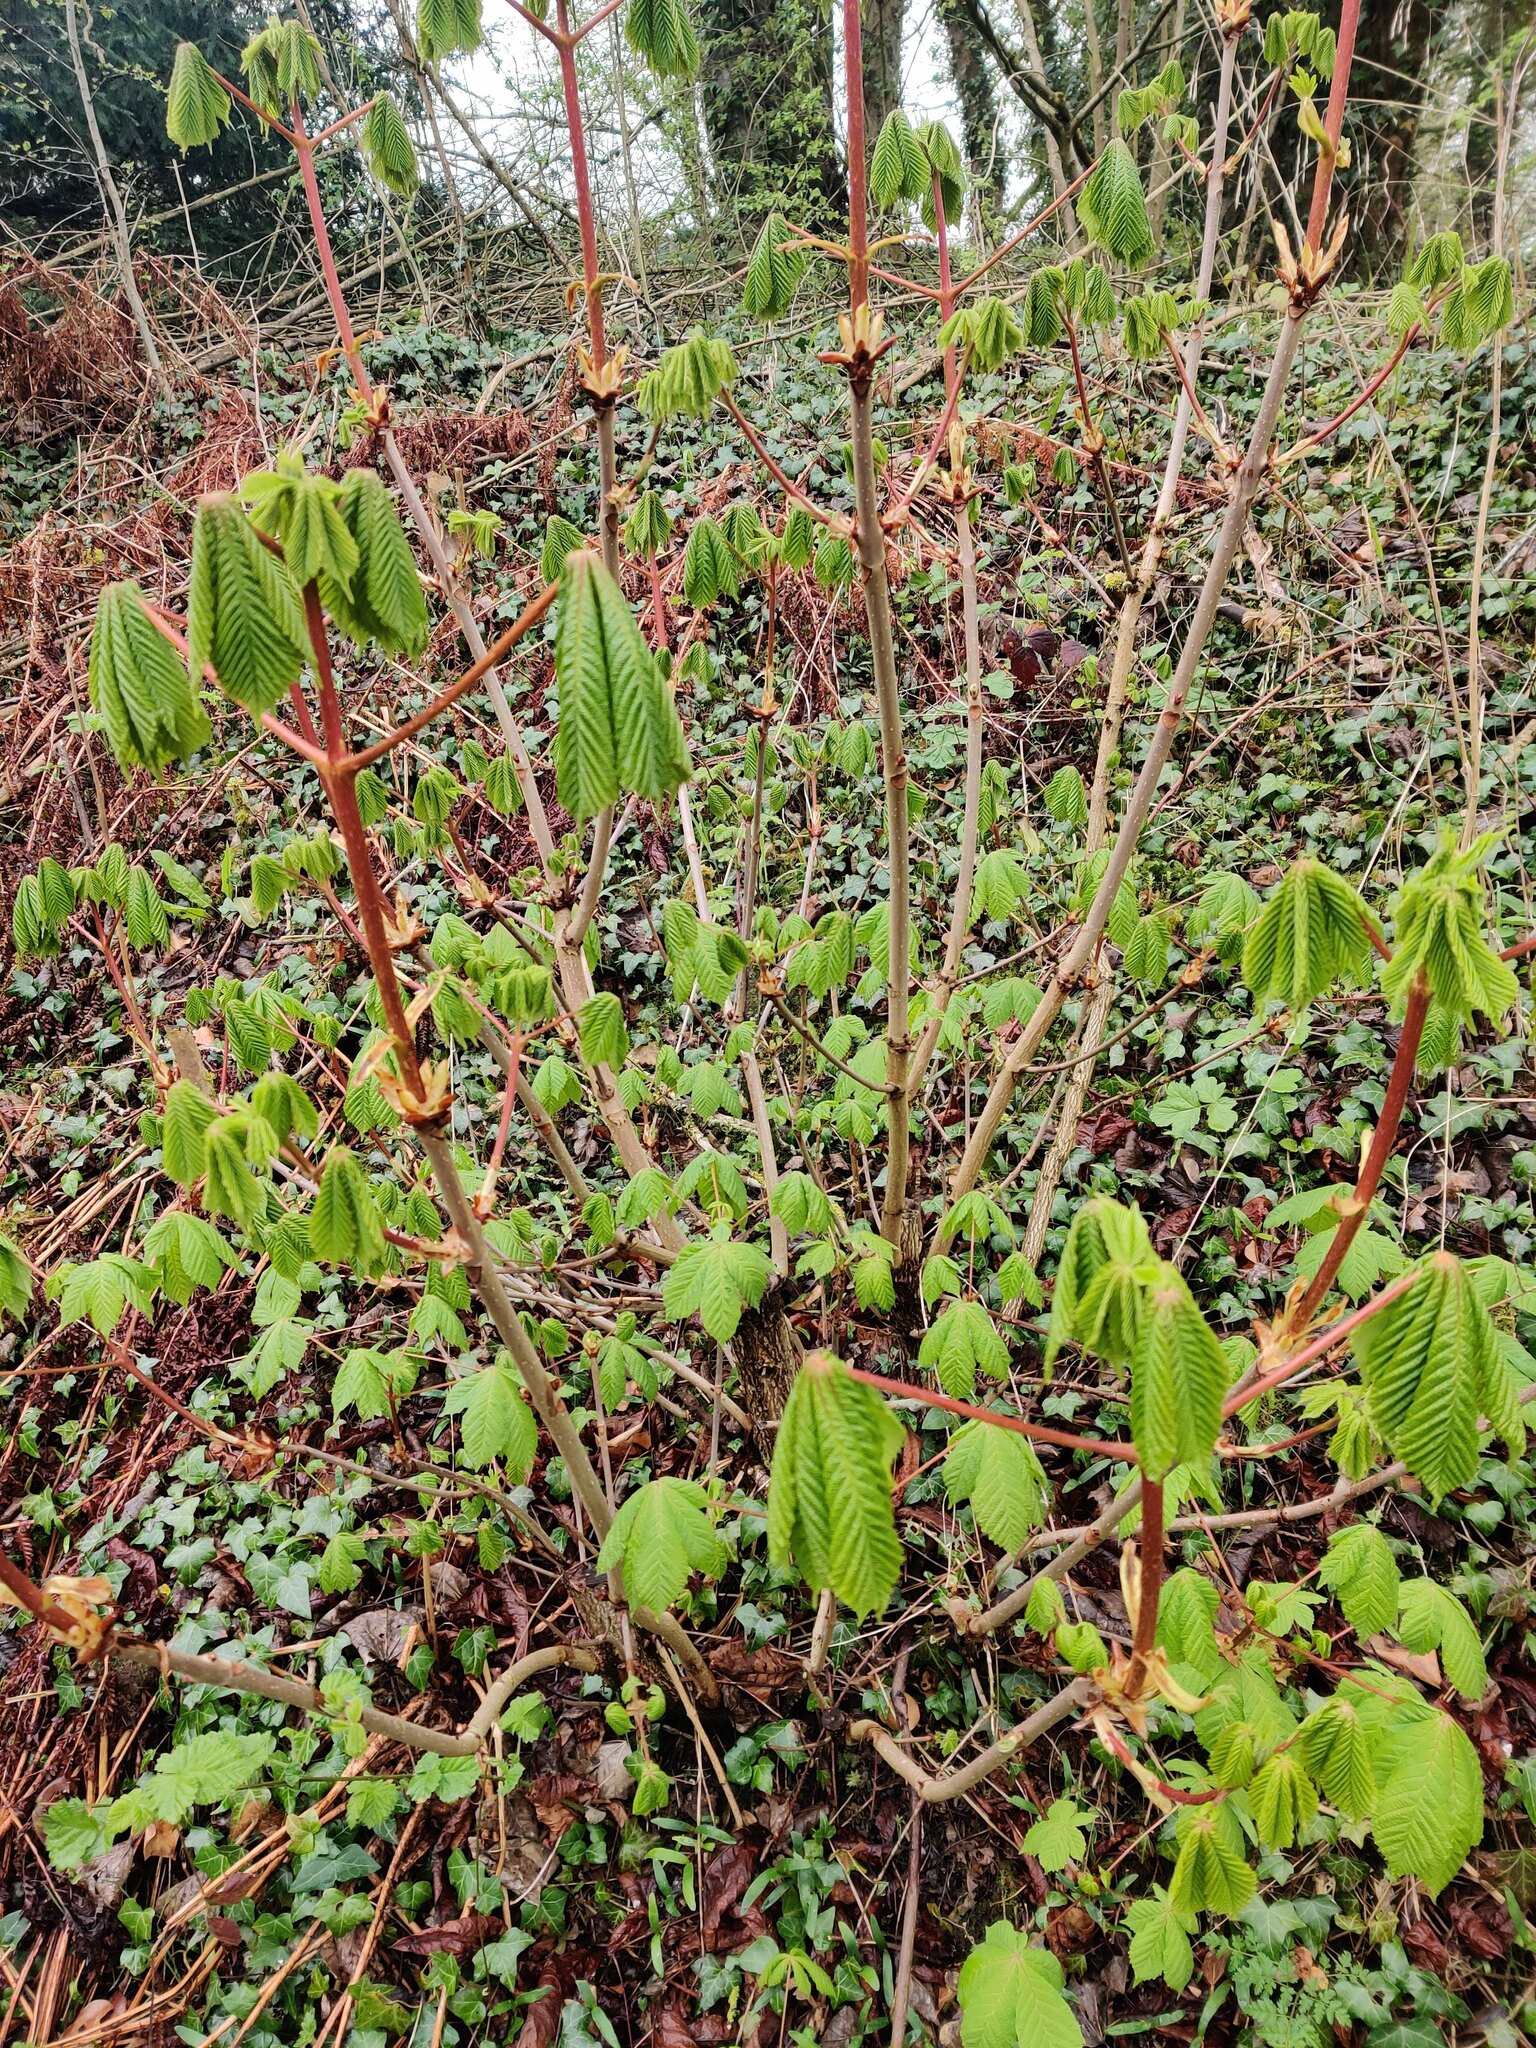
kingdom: Plantae
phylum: Tracheophyta
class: Magnoliopsida
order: Sapindales
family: Sapindaceae
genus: Aesculus
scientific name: Aesculus hippocastanum
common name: Horse-chestnut
